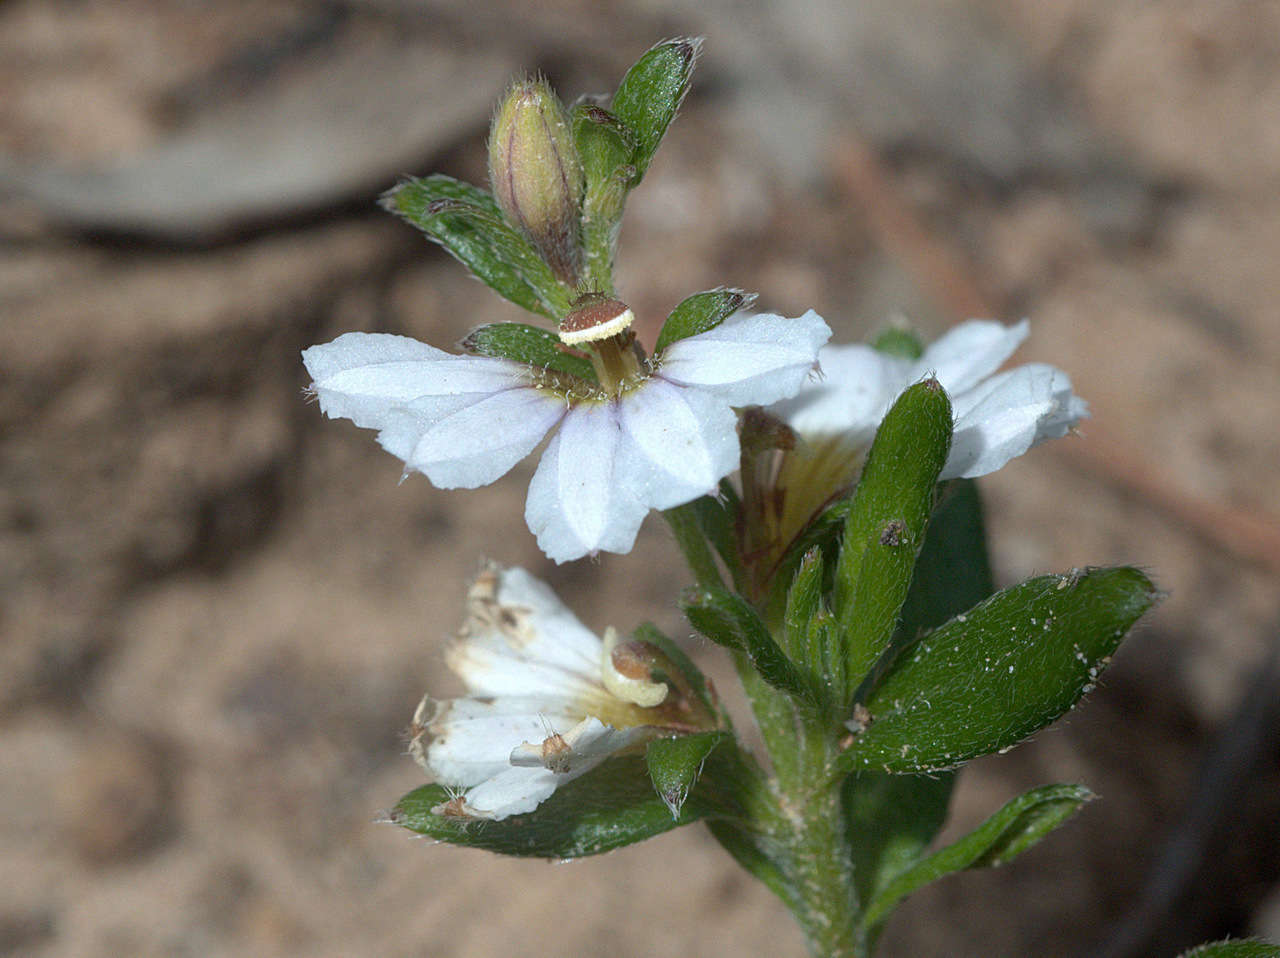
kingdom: Plantae
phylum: Tracheophyta
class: Magnoliopsida
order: Asterales
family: Goodeniaceae
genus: Scaevola
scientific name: Scaevola albida
